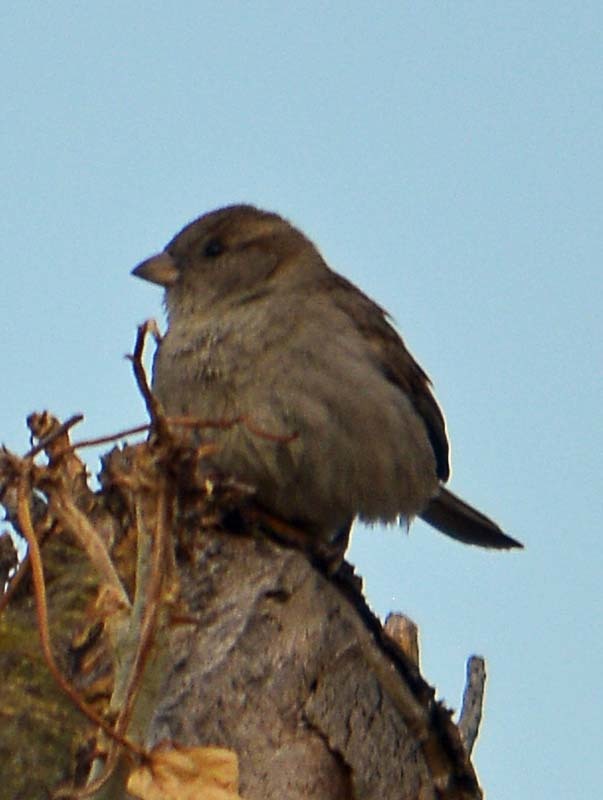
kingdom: Animalia
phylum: Chordata
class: Aves
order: Passeriformes
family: Passeridae
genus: Passer
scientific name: Passer domesticus
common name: House sparrow
